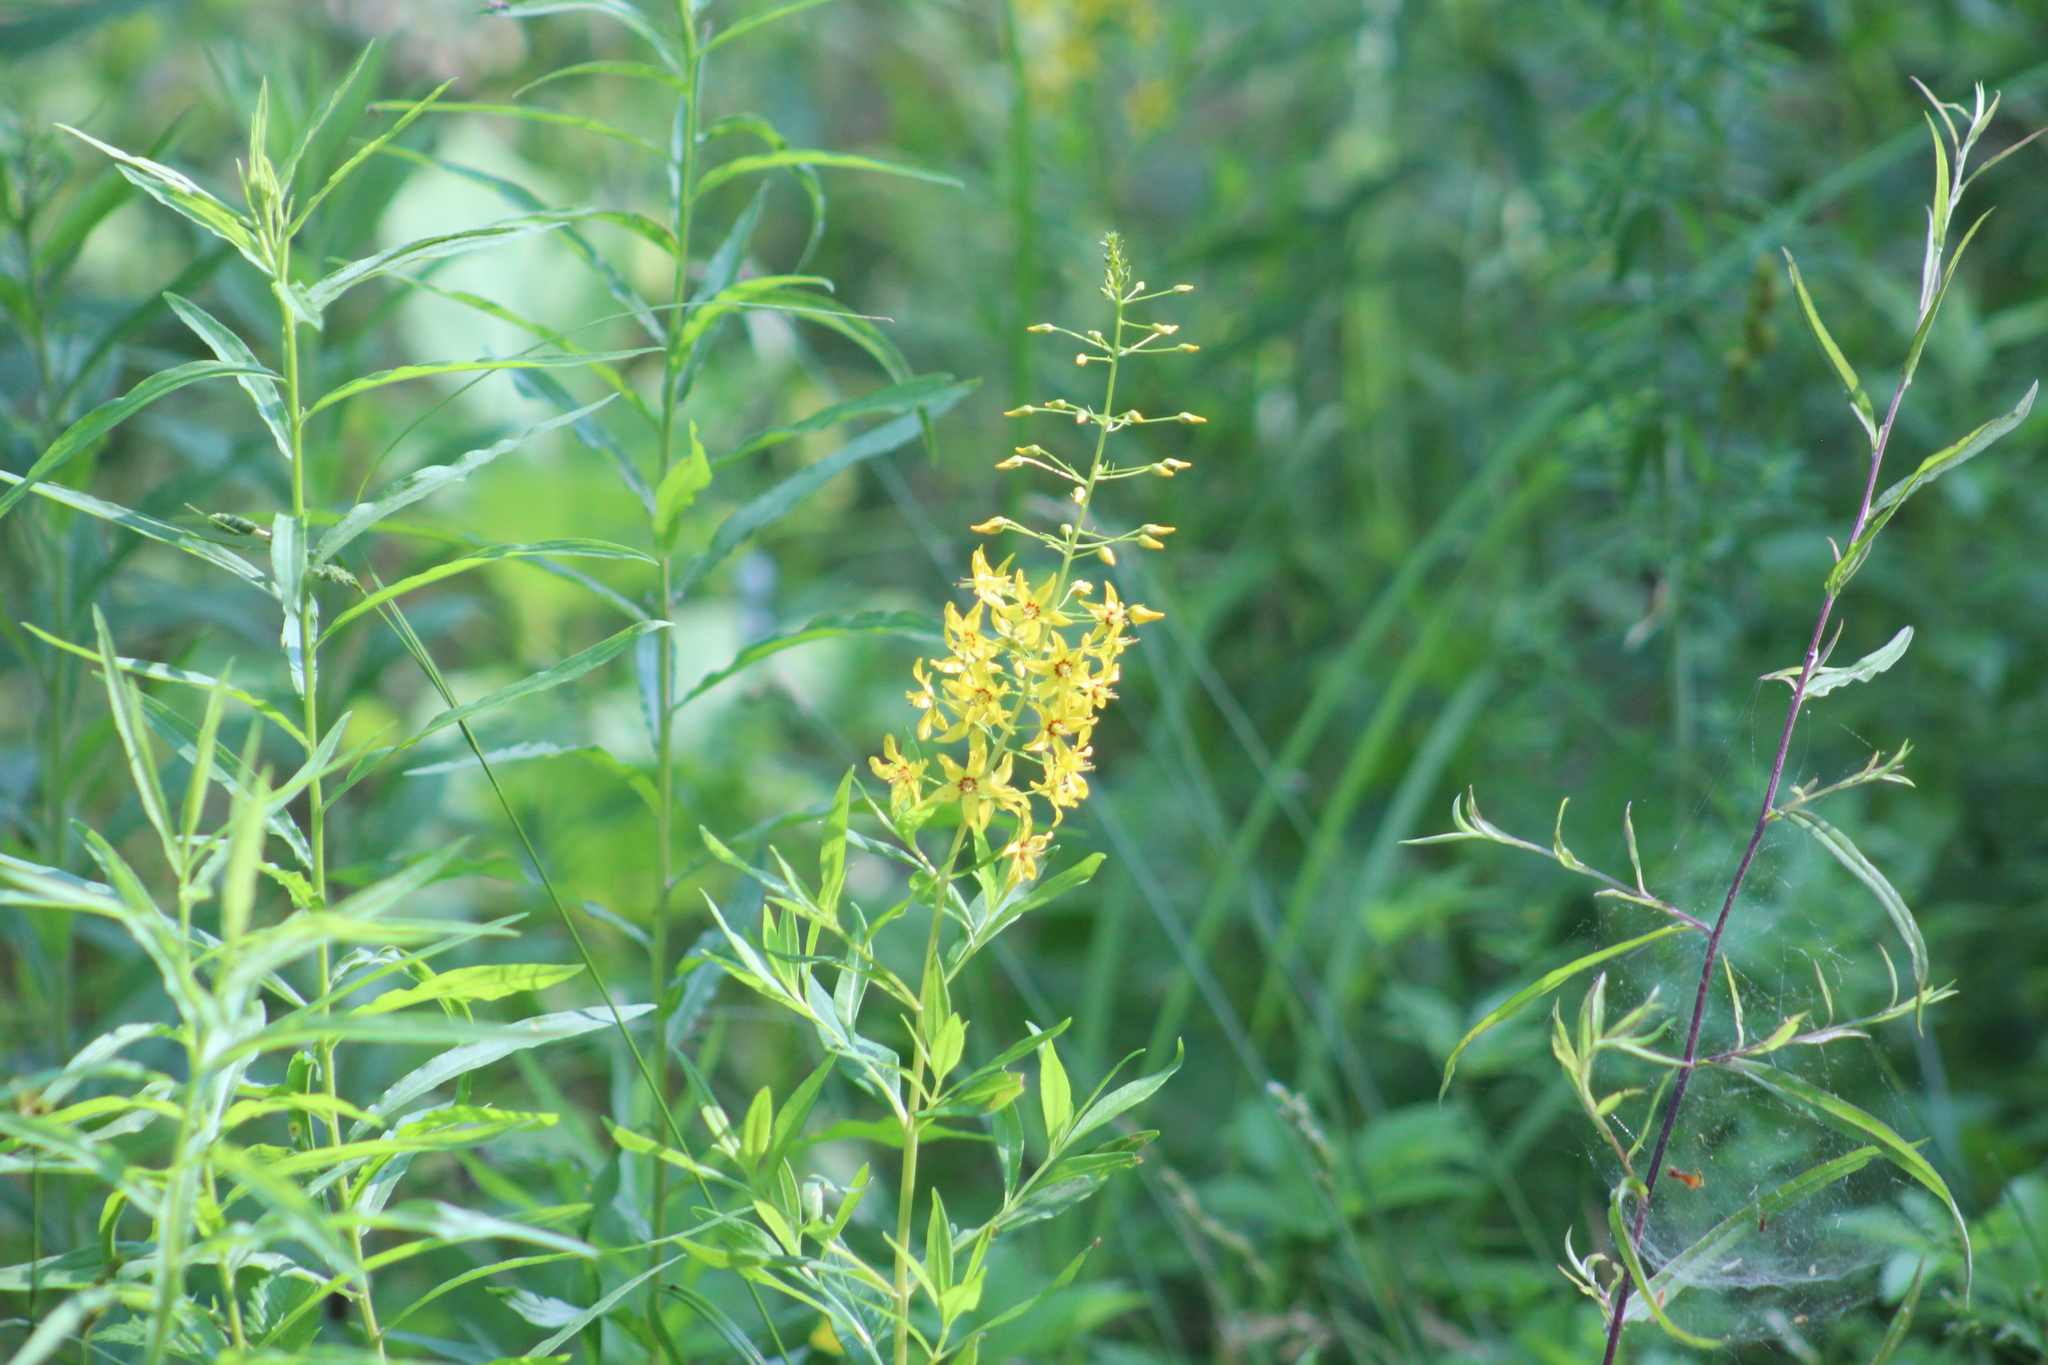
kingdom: Plantae
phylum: Tracheophyta
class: Magnoliopsida
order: Ericales
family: Primulaceae
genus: Lysimachia
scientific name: Lysimachia terrestris
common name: Lake loosestrife
